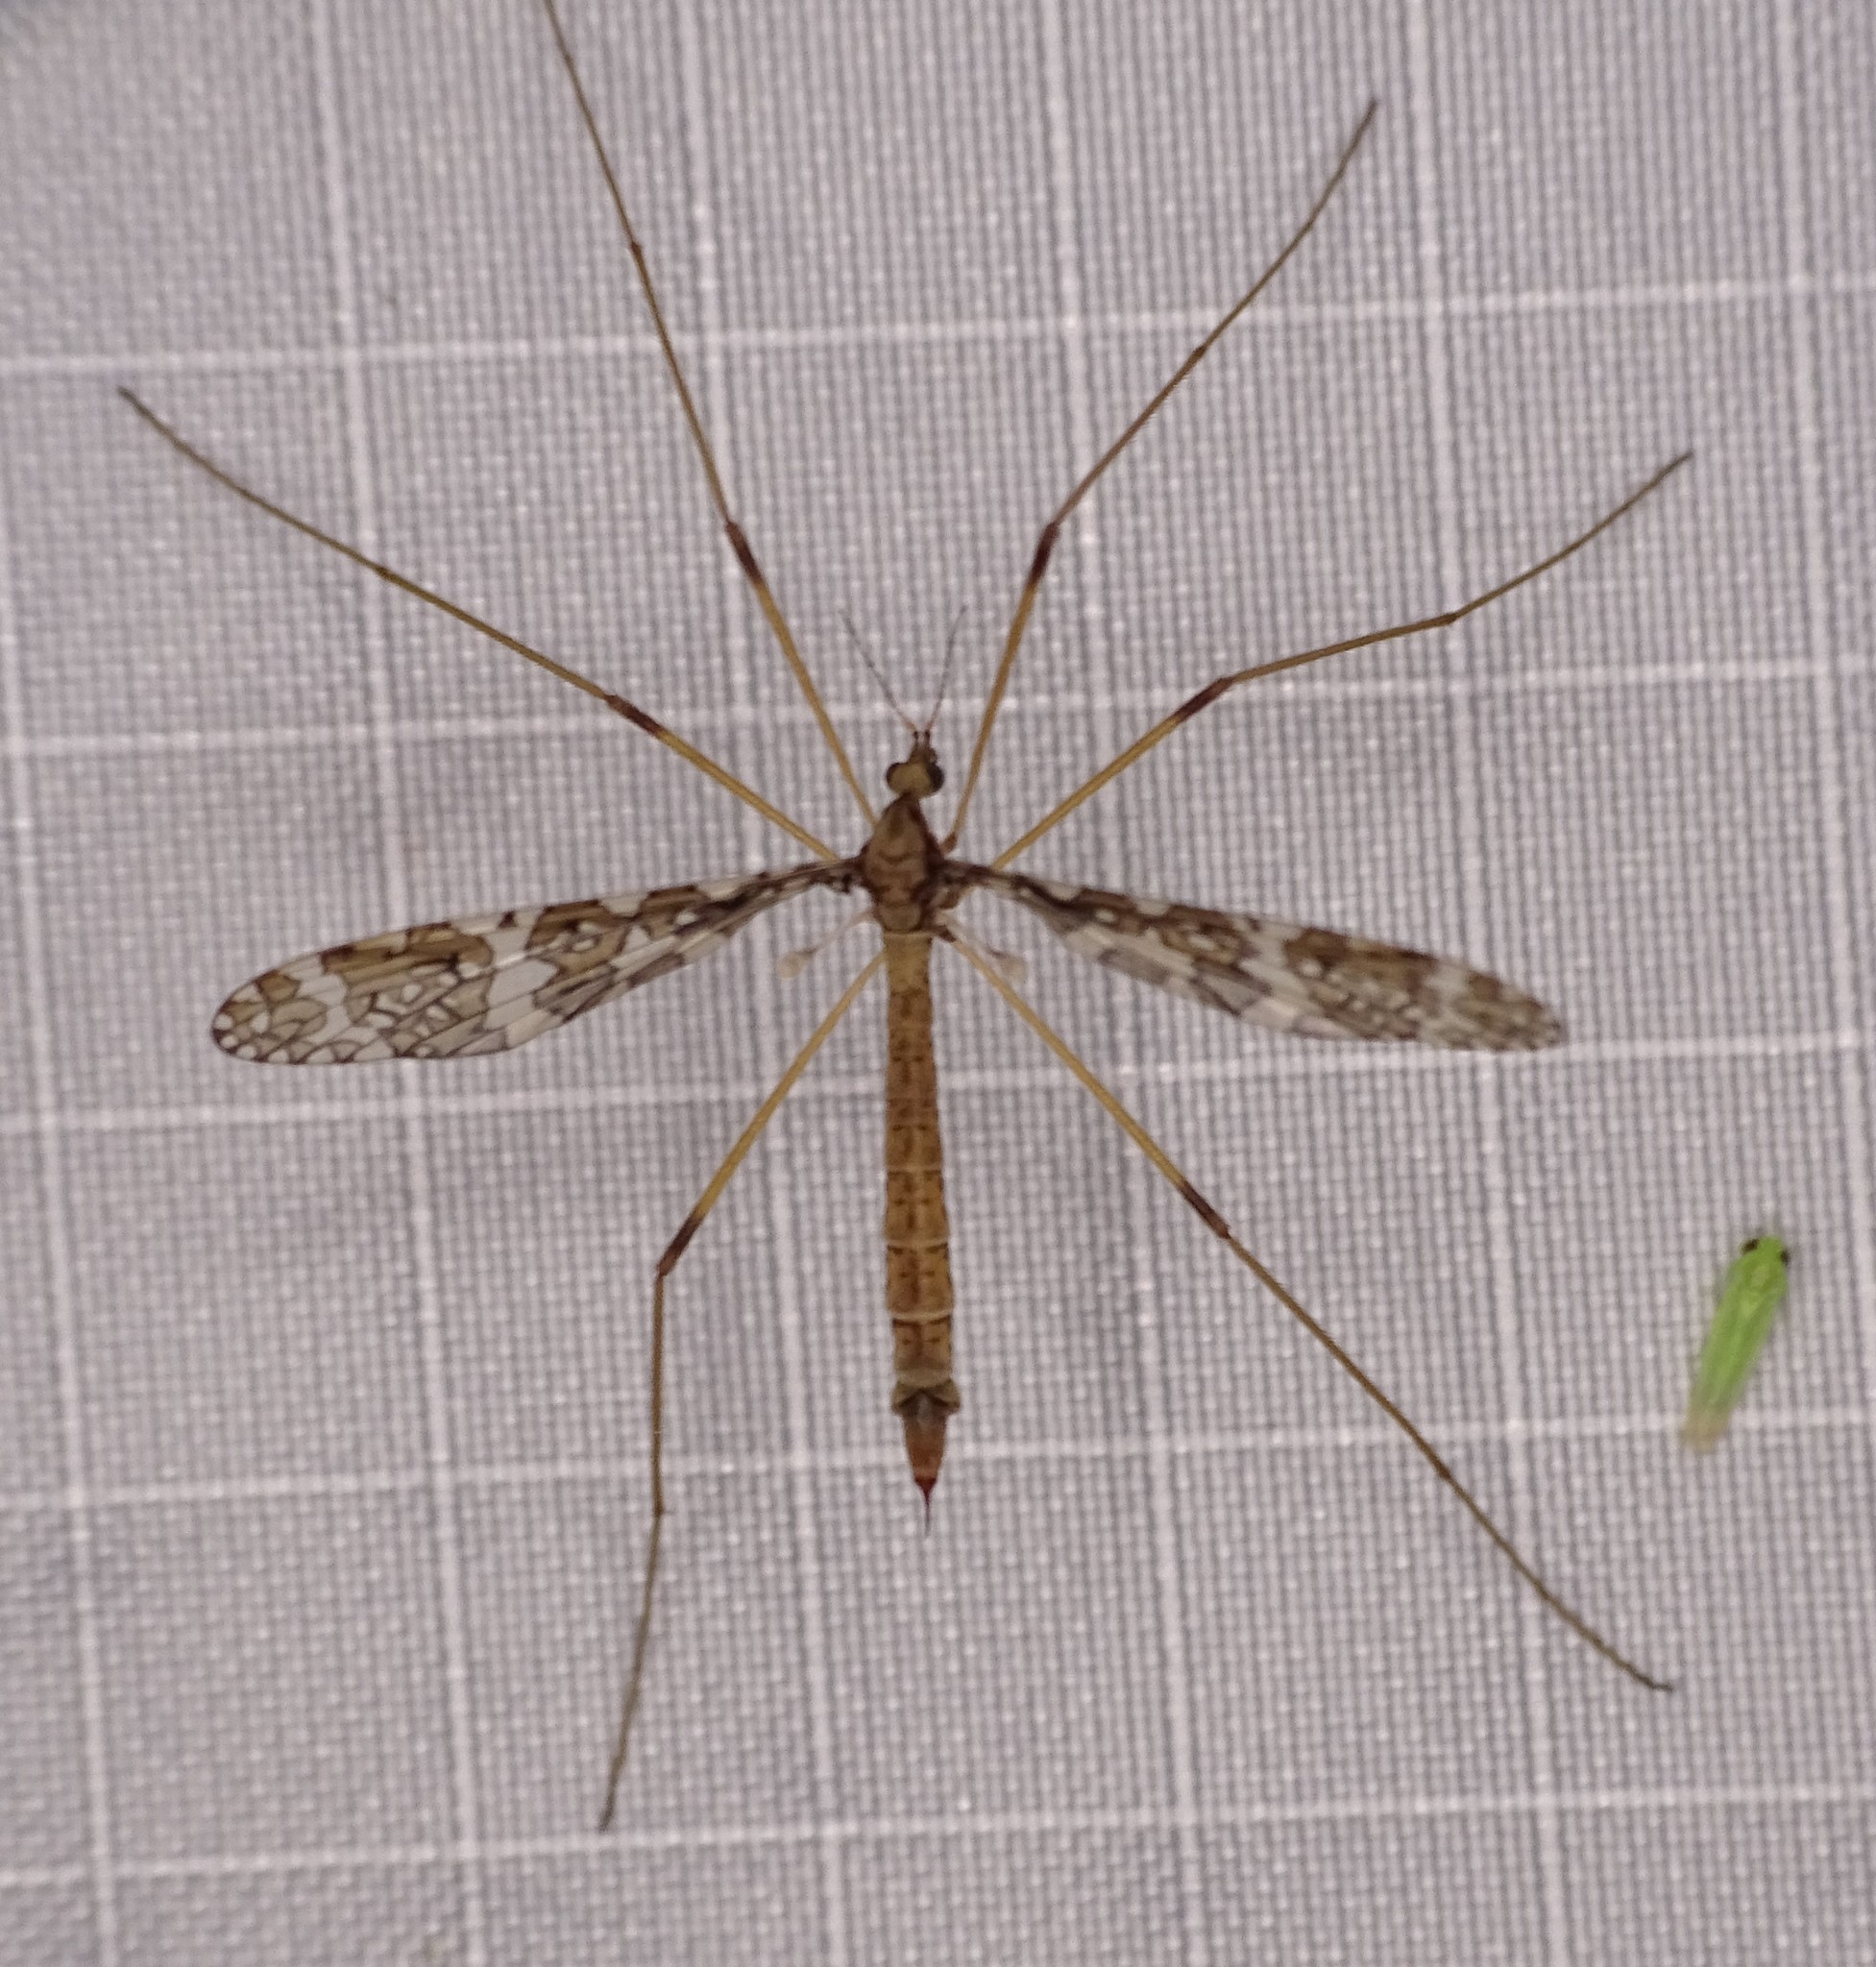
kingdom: Animalia
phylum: Arthropoda
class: Insecta
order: Diptera
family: Limoniidae
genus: Epiphragma
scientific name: Epiphragma fasciapenne
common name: Band-winged crane fly
